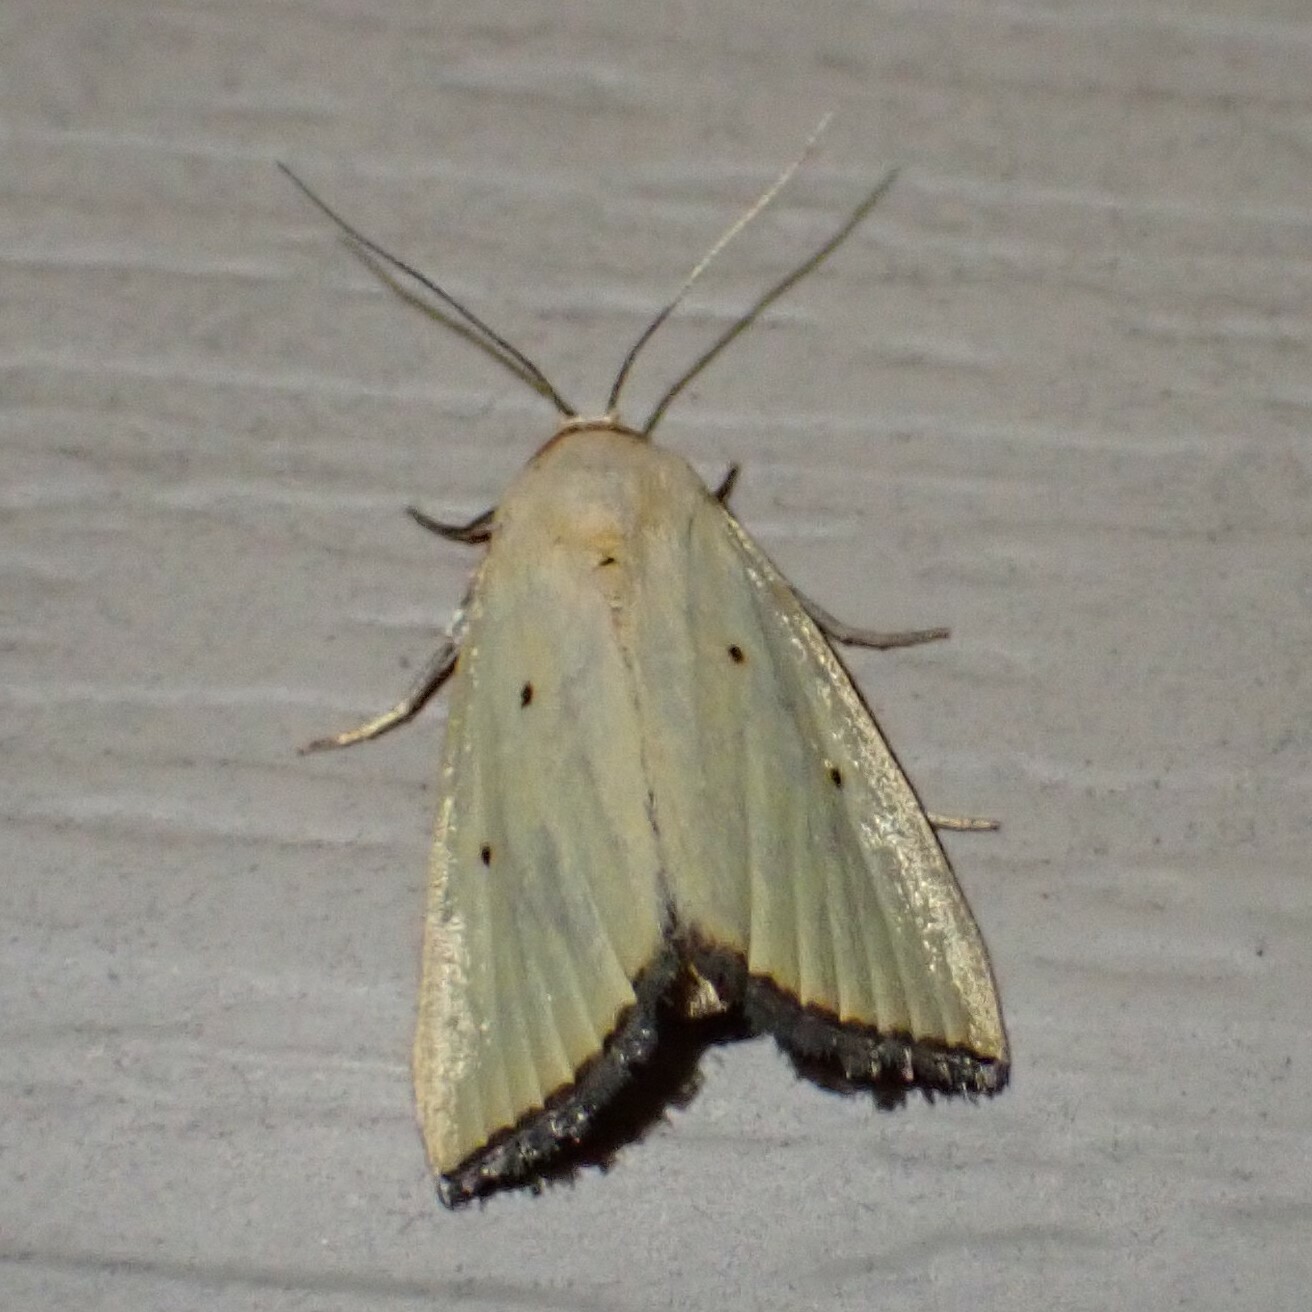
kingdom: Animalia
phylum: Arthropoda
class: Insecta
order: Lepidoptera
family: Noctuidae
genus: Marimatha
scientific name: Marimatha nigrofimbria
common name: Black-bordered lemon moth
